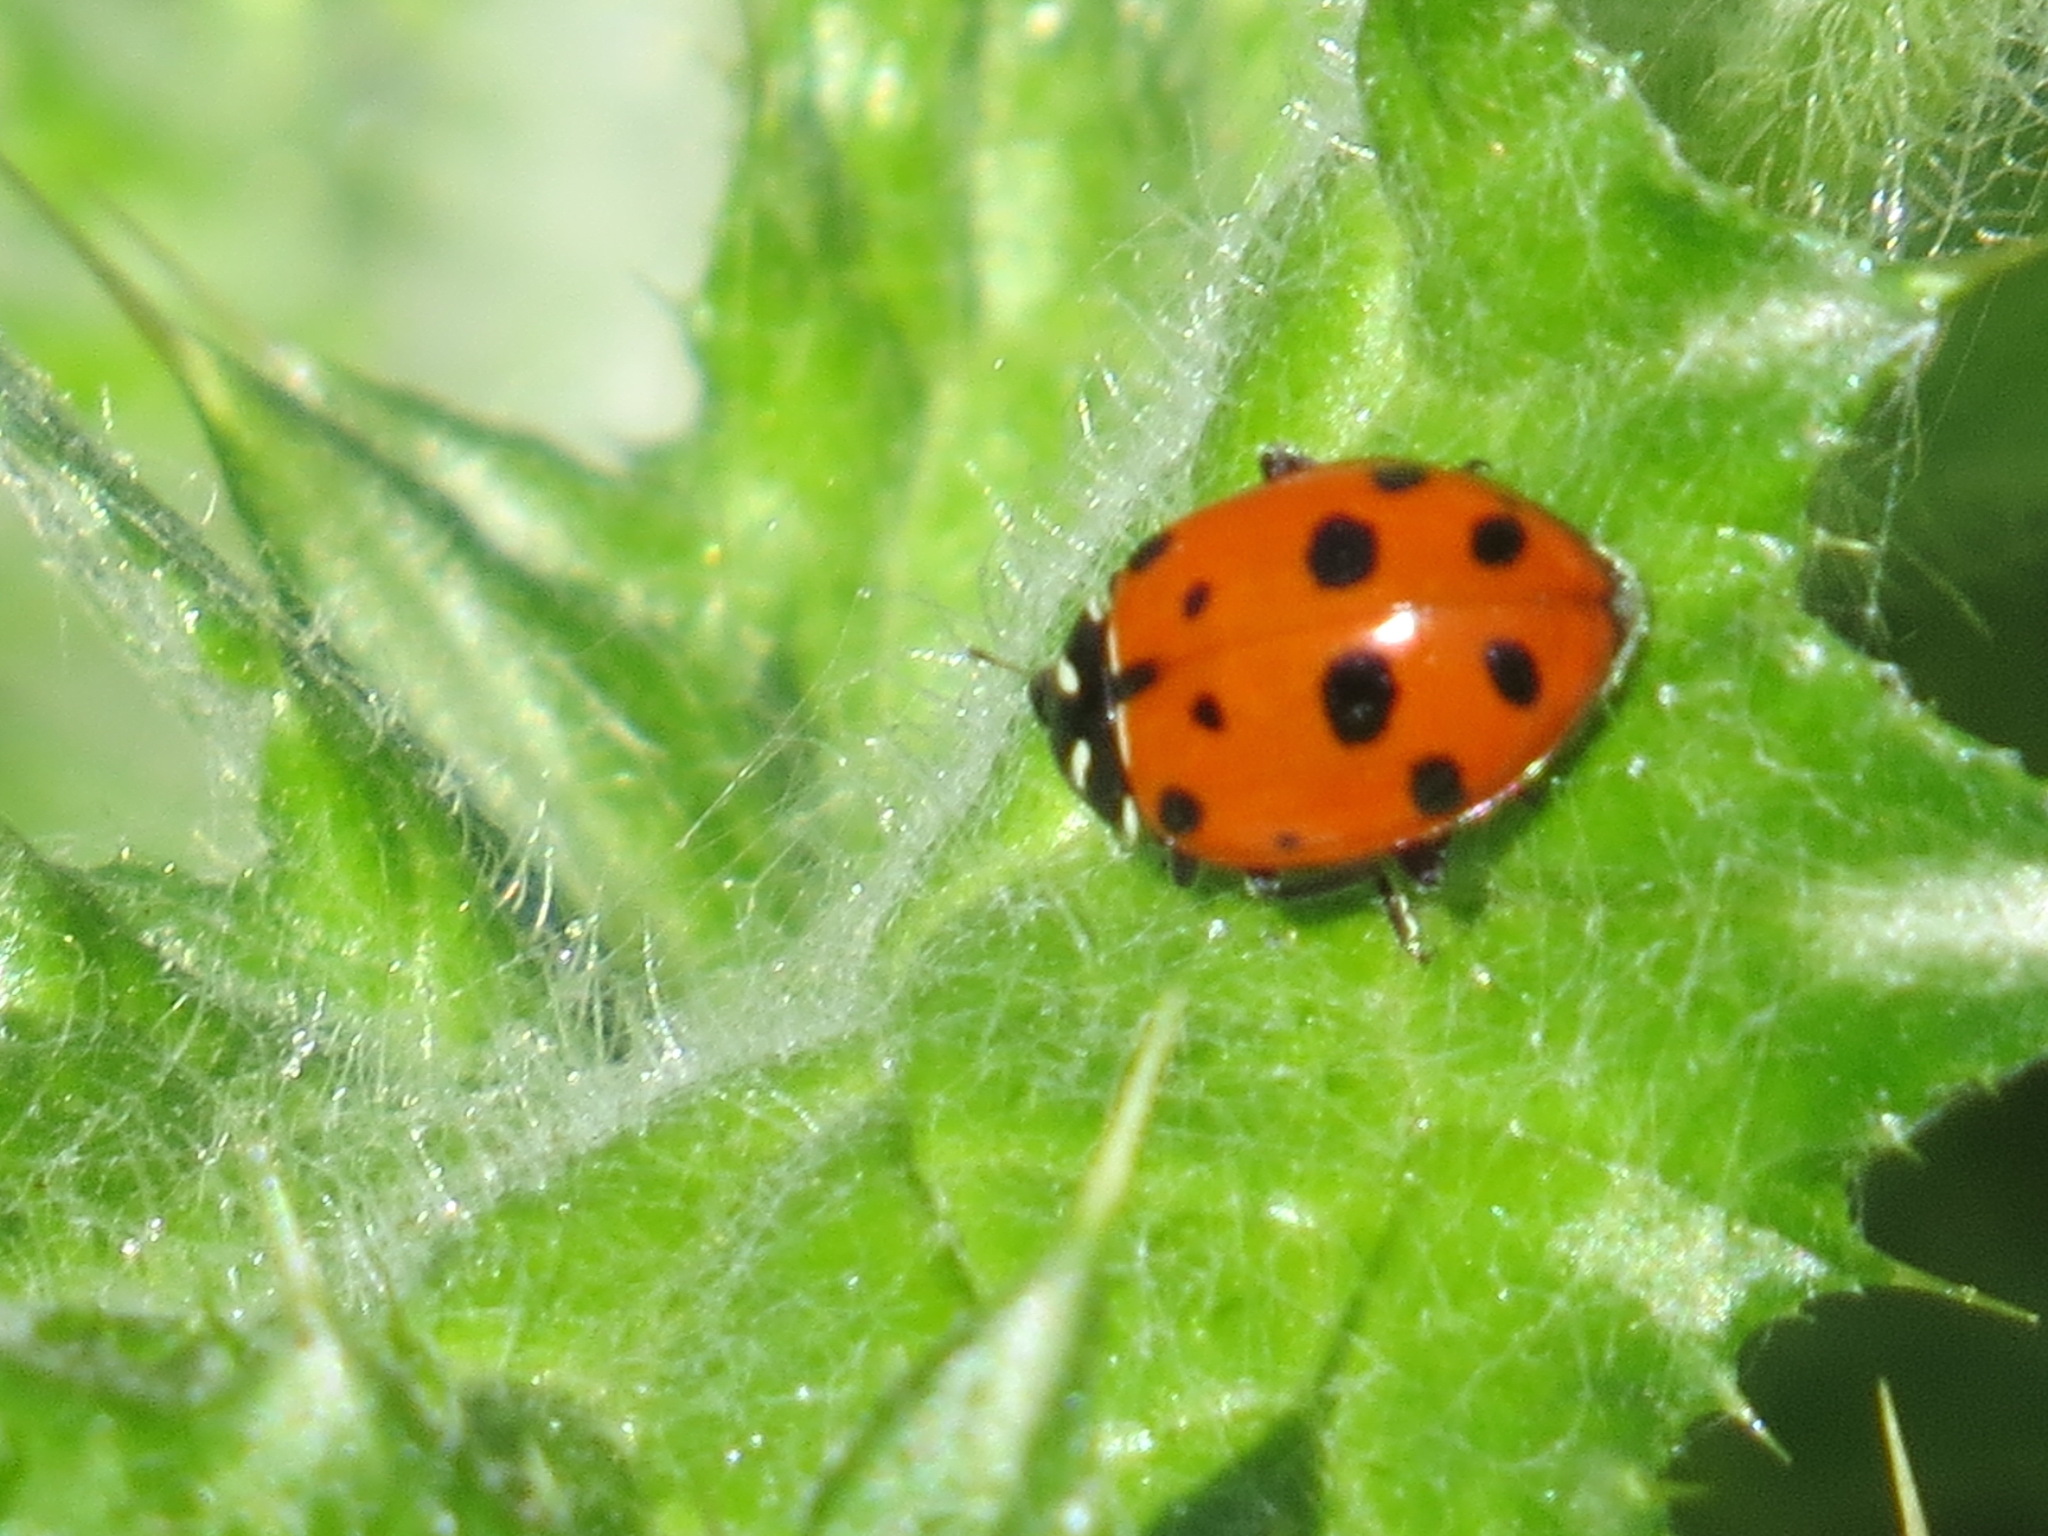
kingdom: Animalia
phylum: Arthropoda
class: Insecta
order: Coleoptera
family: Coccinellidae
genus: Hippodamia
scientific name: Hippodamia convergens
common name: Convergent lady beetle
